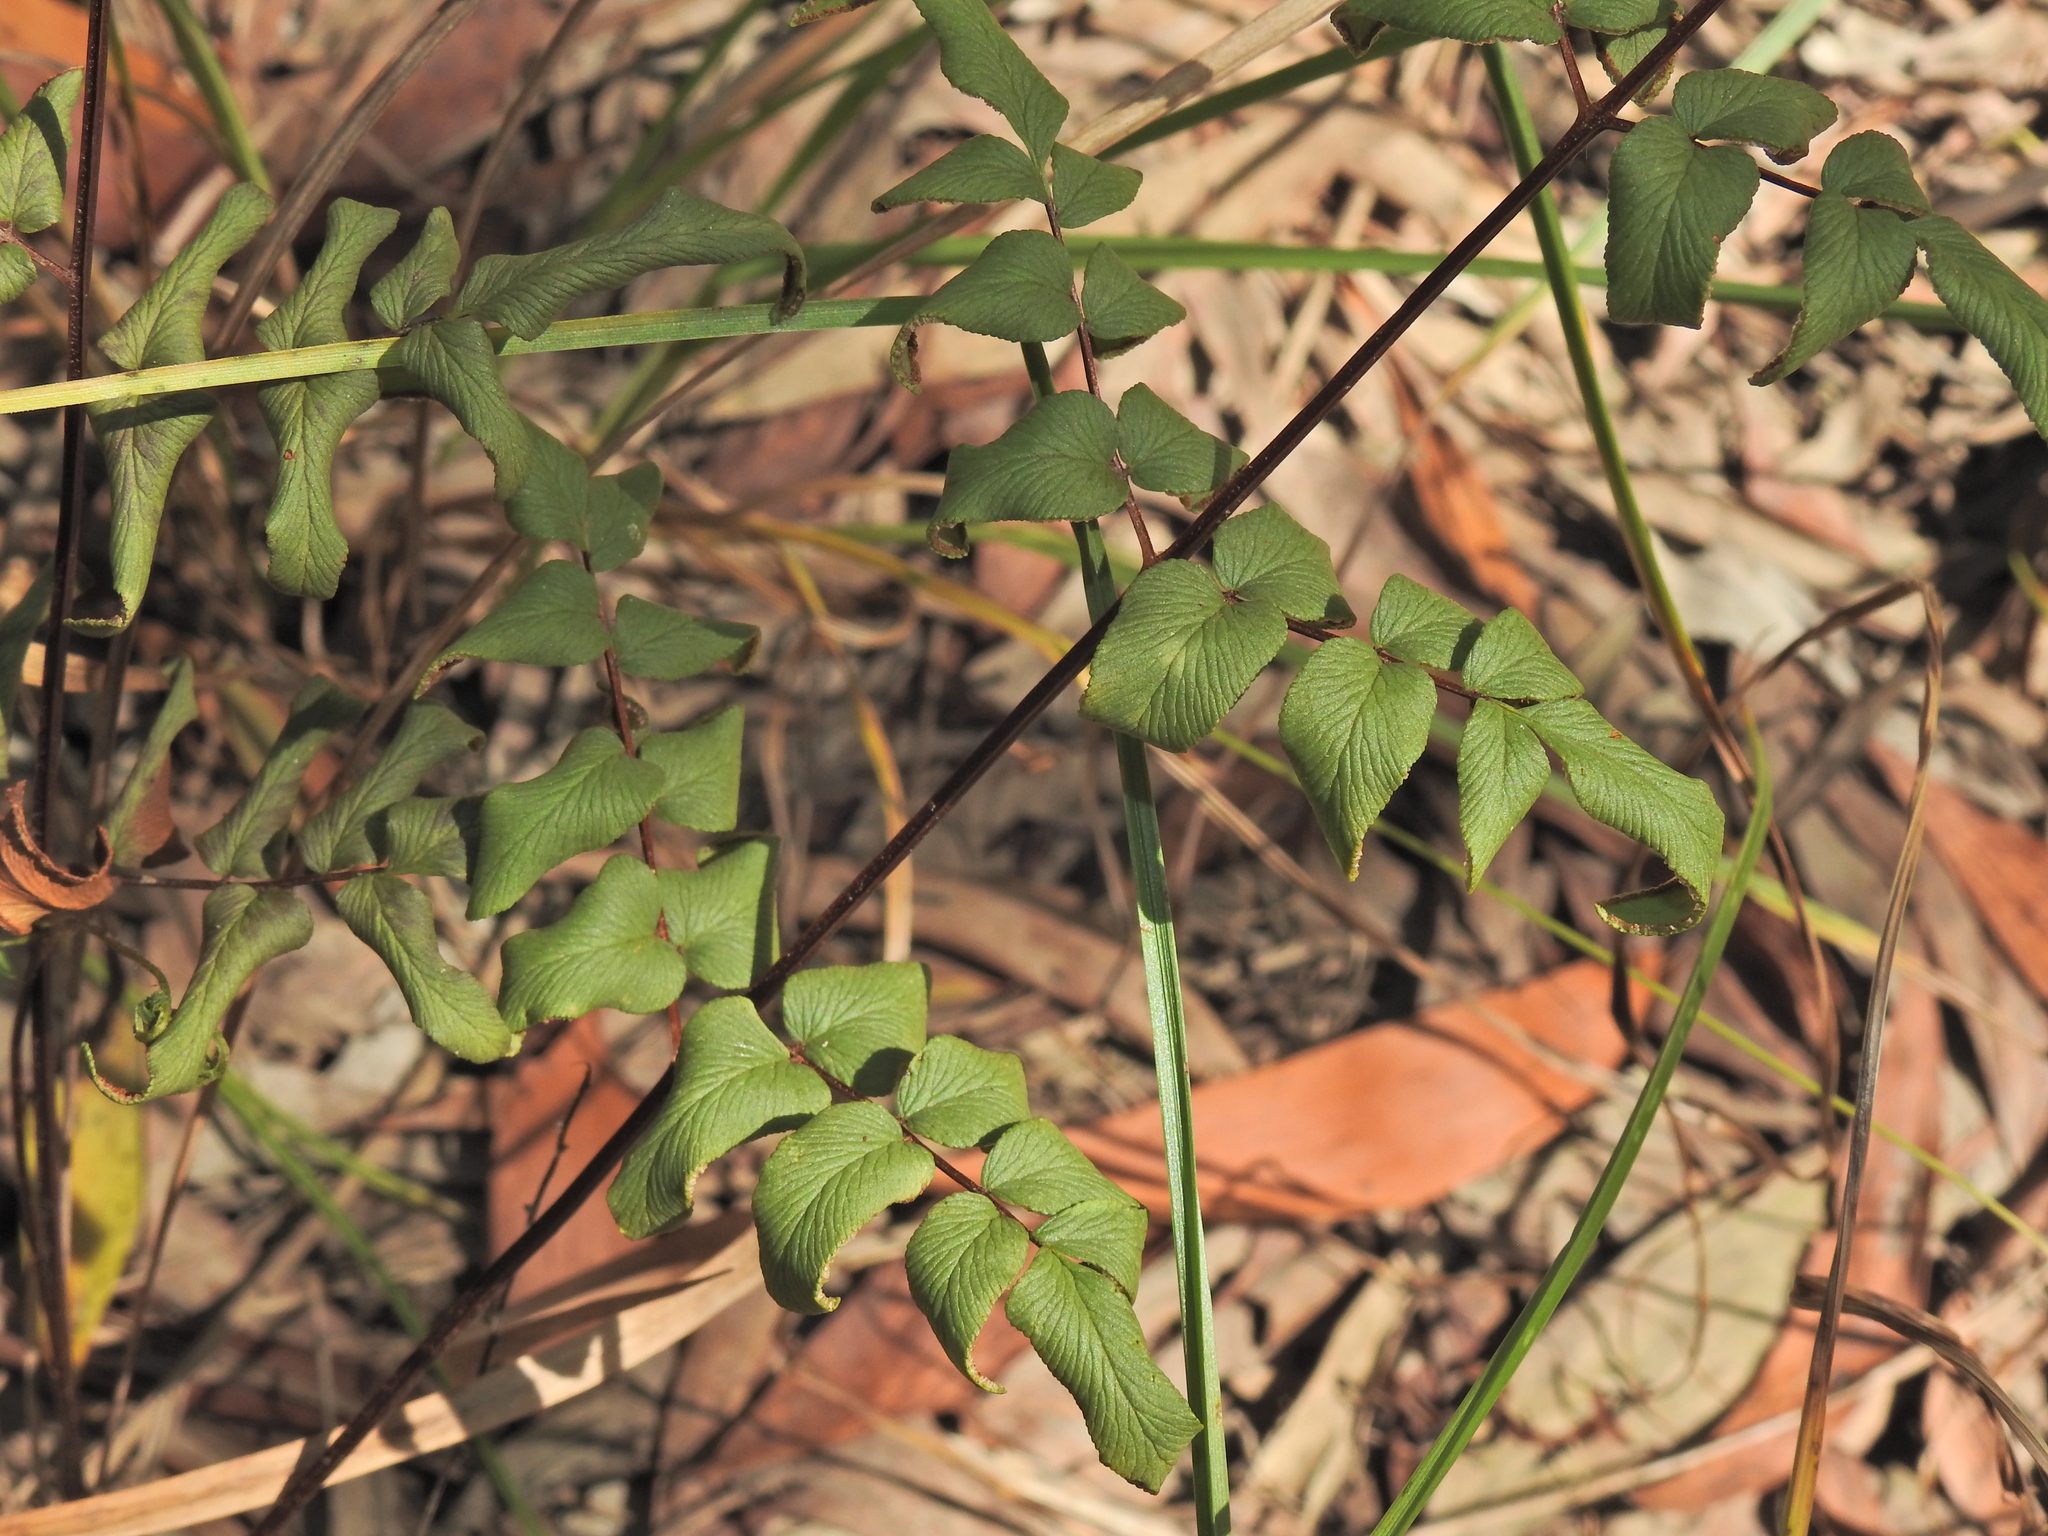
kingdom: Plantae
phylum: Tracheophyta
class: Polypodiopsida
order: Polypodiales
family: Pteridaceae
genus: Cheilanthes
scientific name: Cheilanthes viridis
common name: Green cliffbrake
